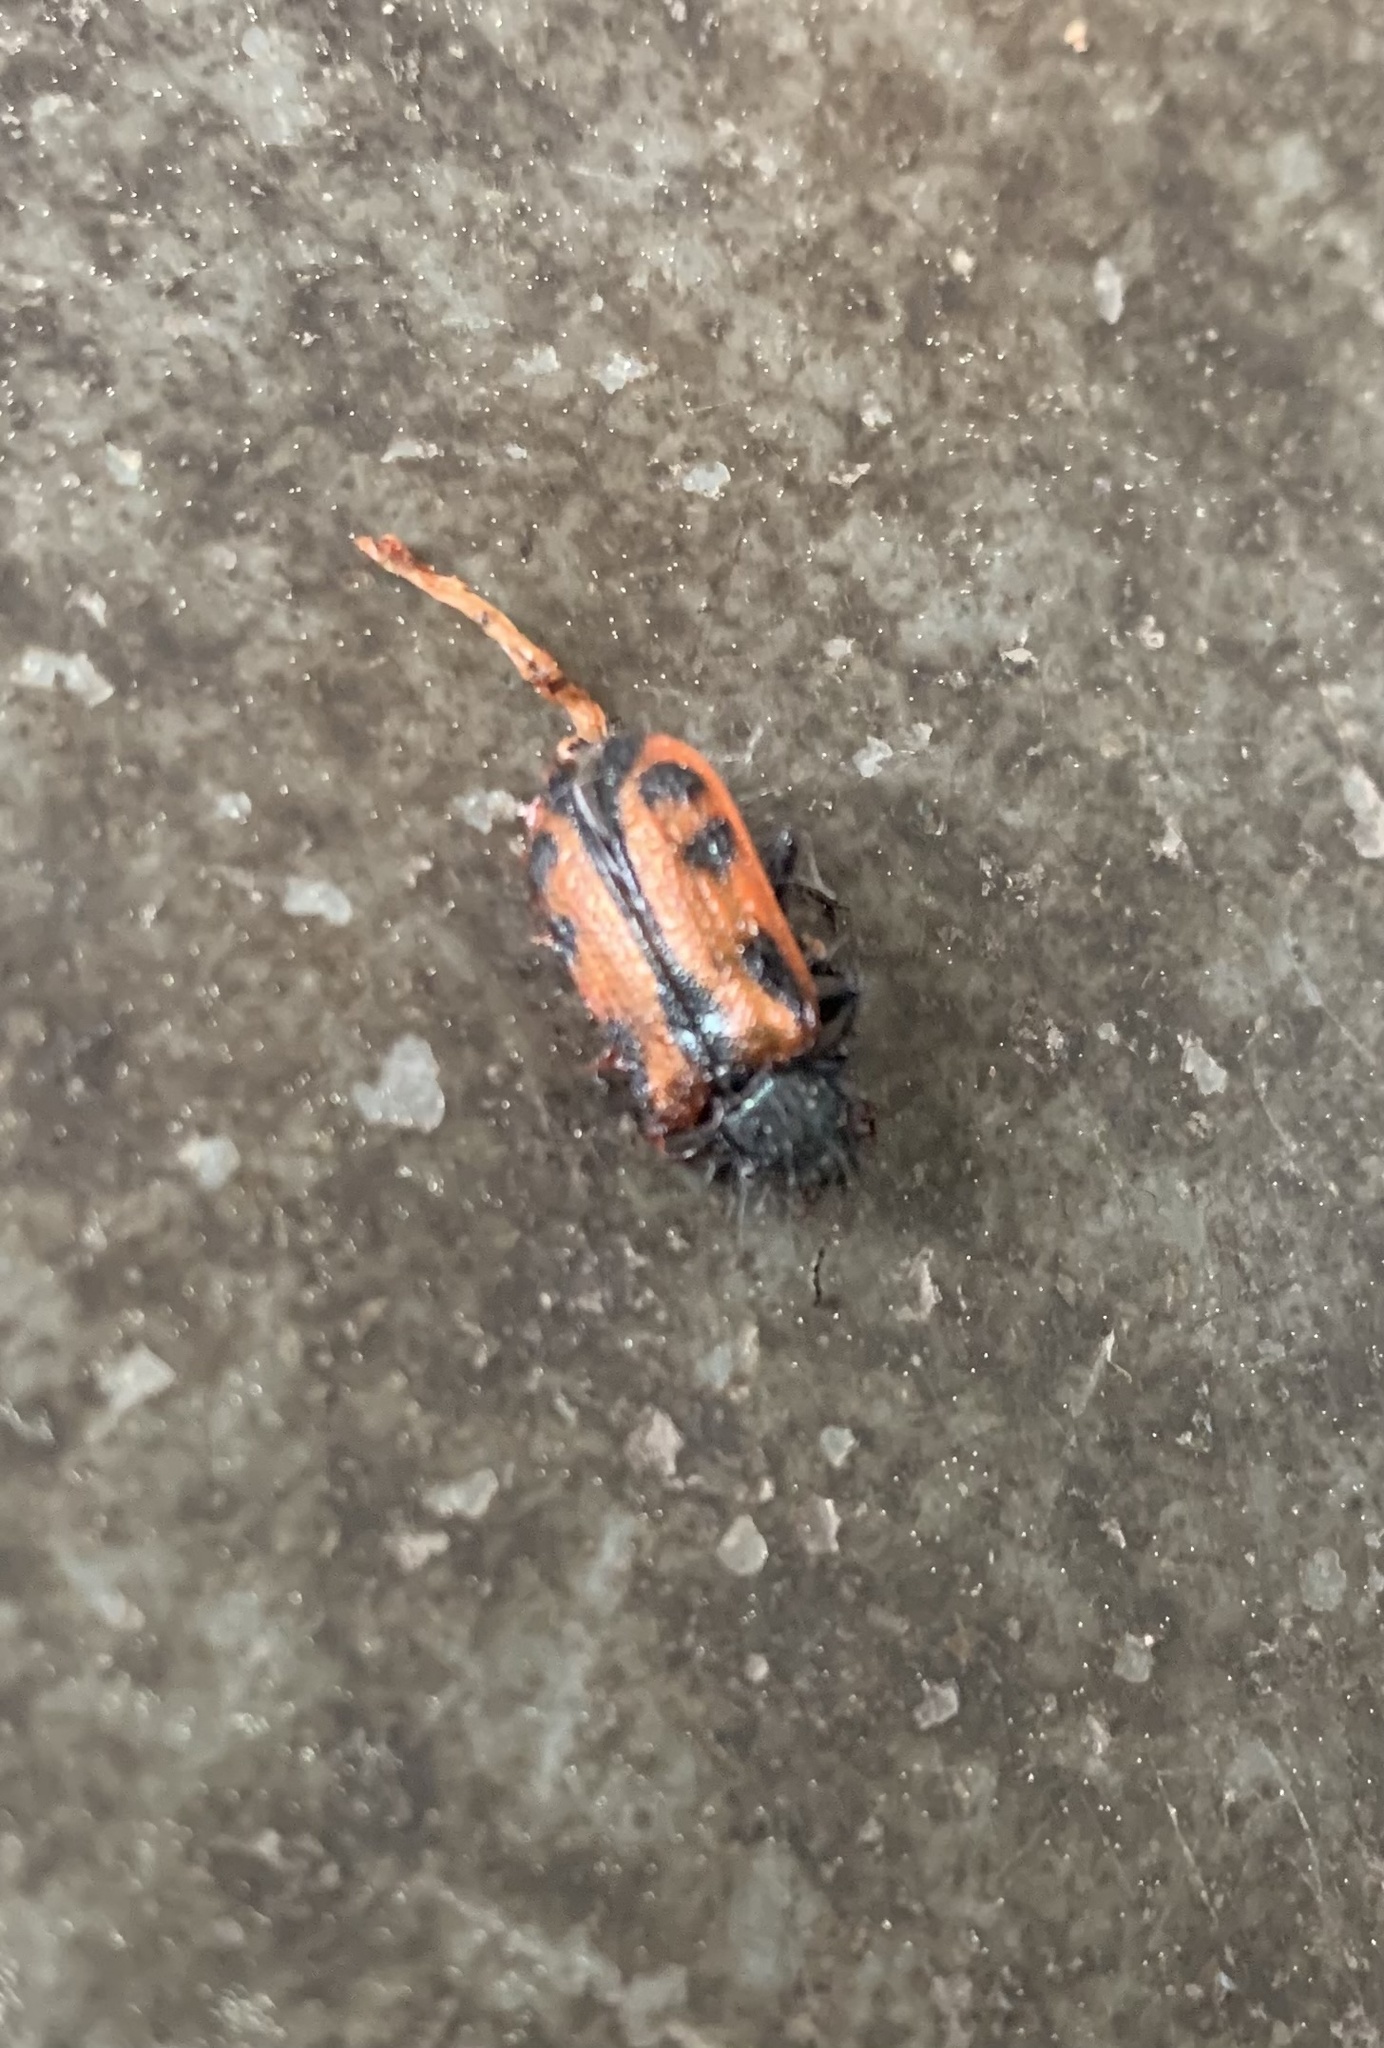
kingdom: Animalia
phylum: Arthropoda
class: Insecta
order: Coleoptera
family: Melyridae
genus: Astylus
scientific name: Astylus
